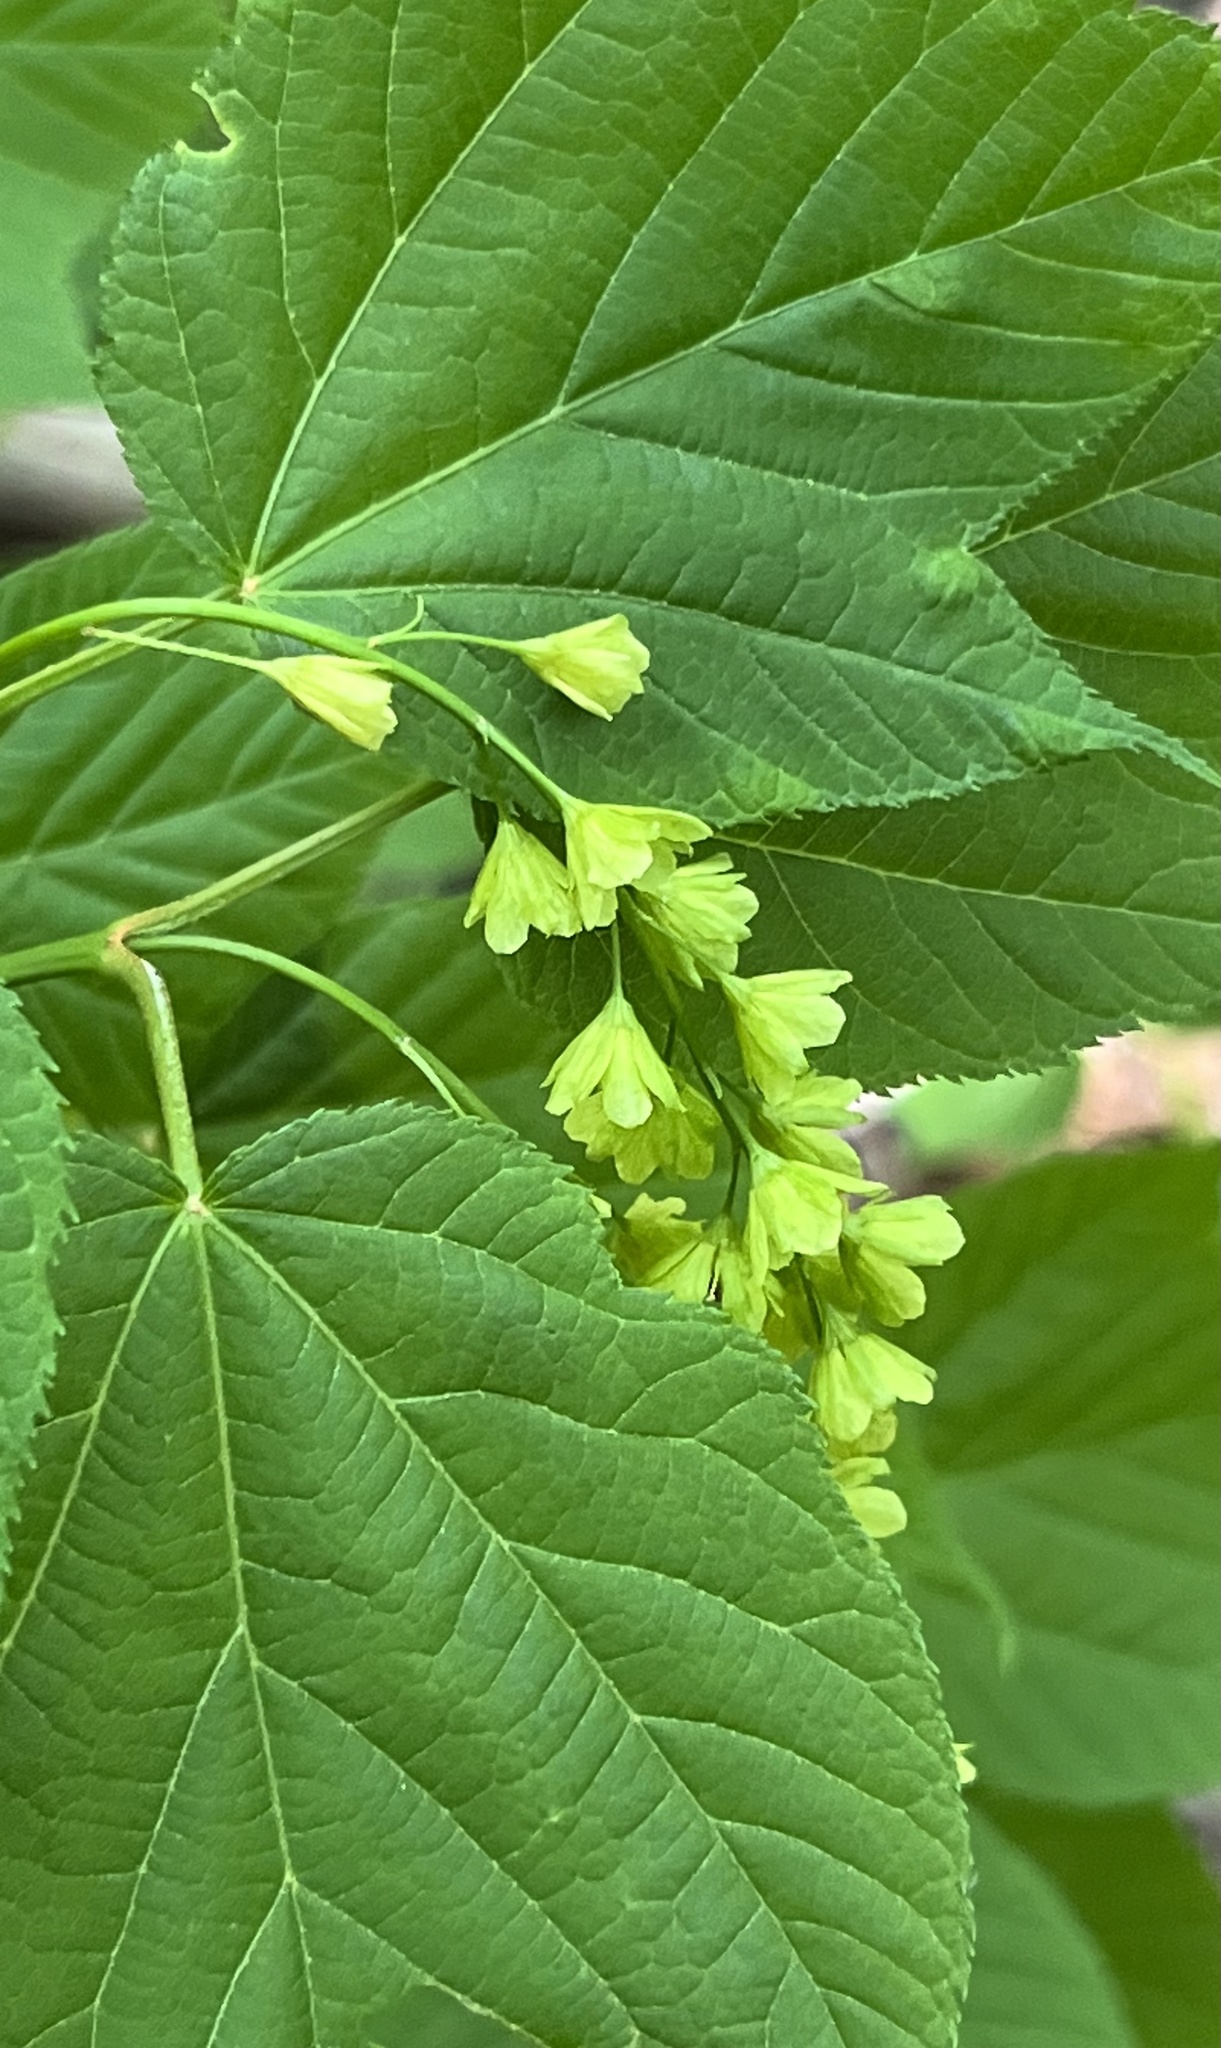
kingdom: Plantae
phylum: Tracheophyta
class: Magnoliopsida
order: Sapindales
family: Sapindaceae
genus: Acer
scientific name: Acer pensylvanicum
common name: Moosewood
